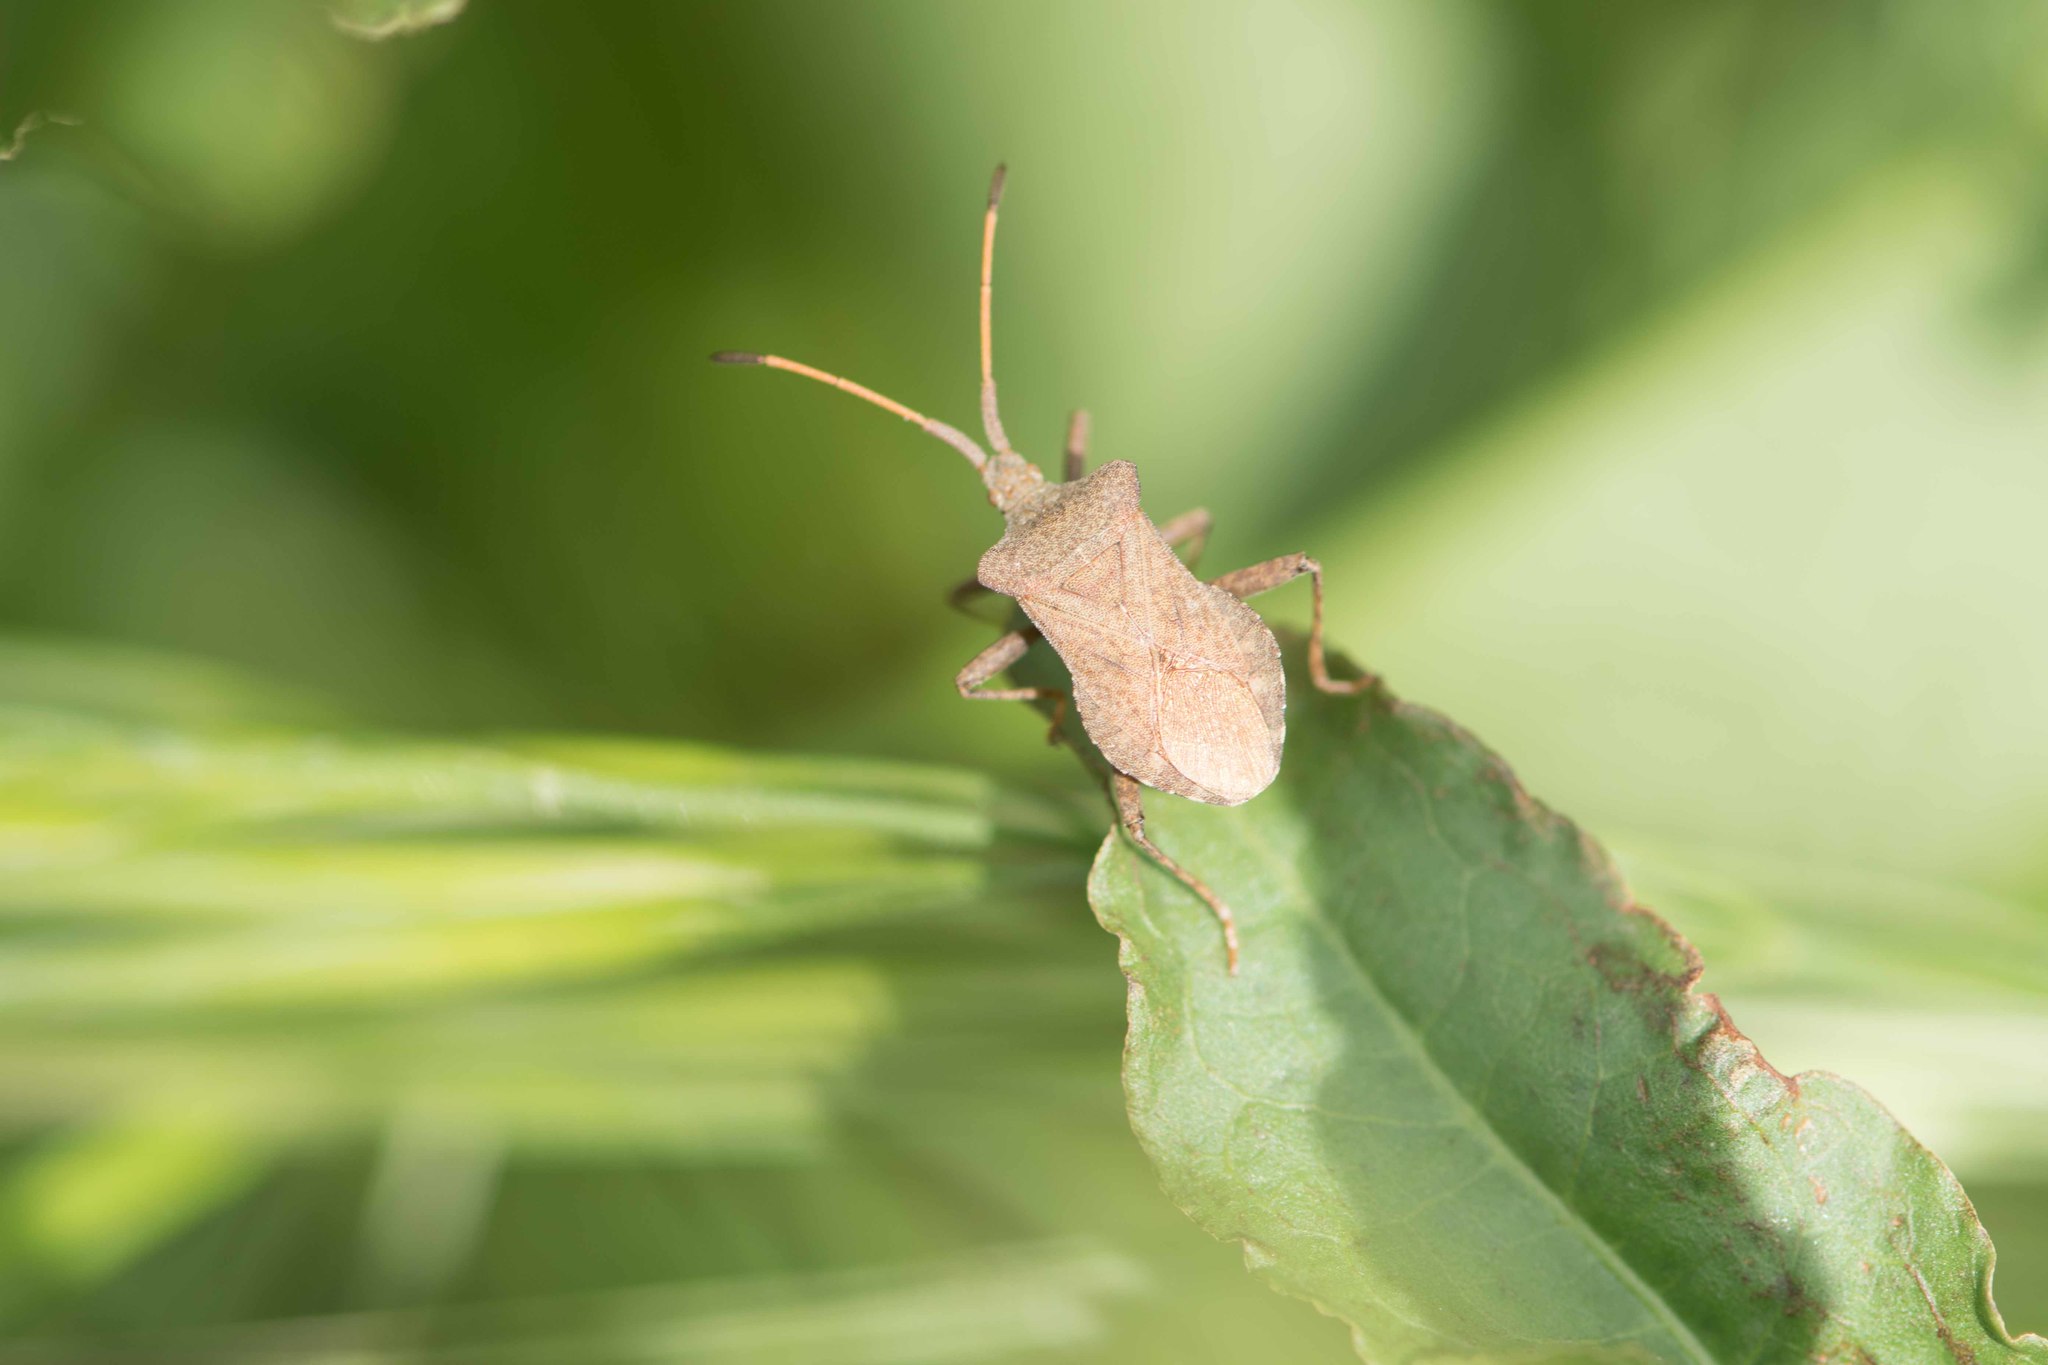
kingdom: Animalia
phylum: Arthropoda
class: Insecta
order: Hemiptera
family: Coreidae
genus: Coreus
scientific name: Coreus marginatus
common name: Dock bug
